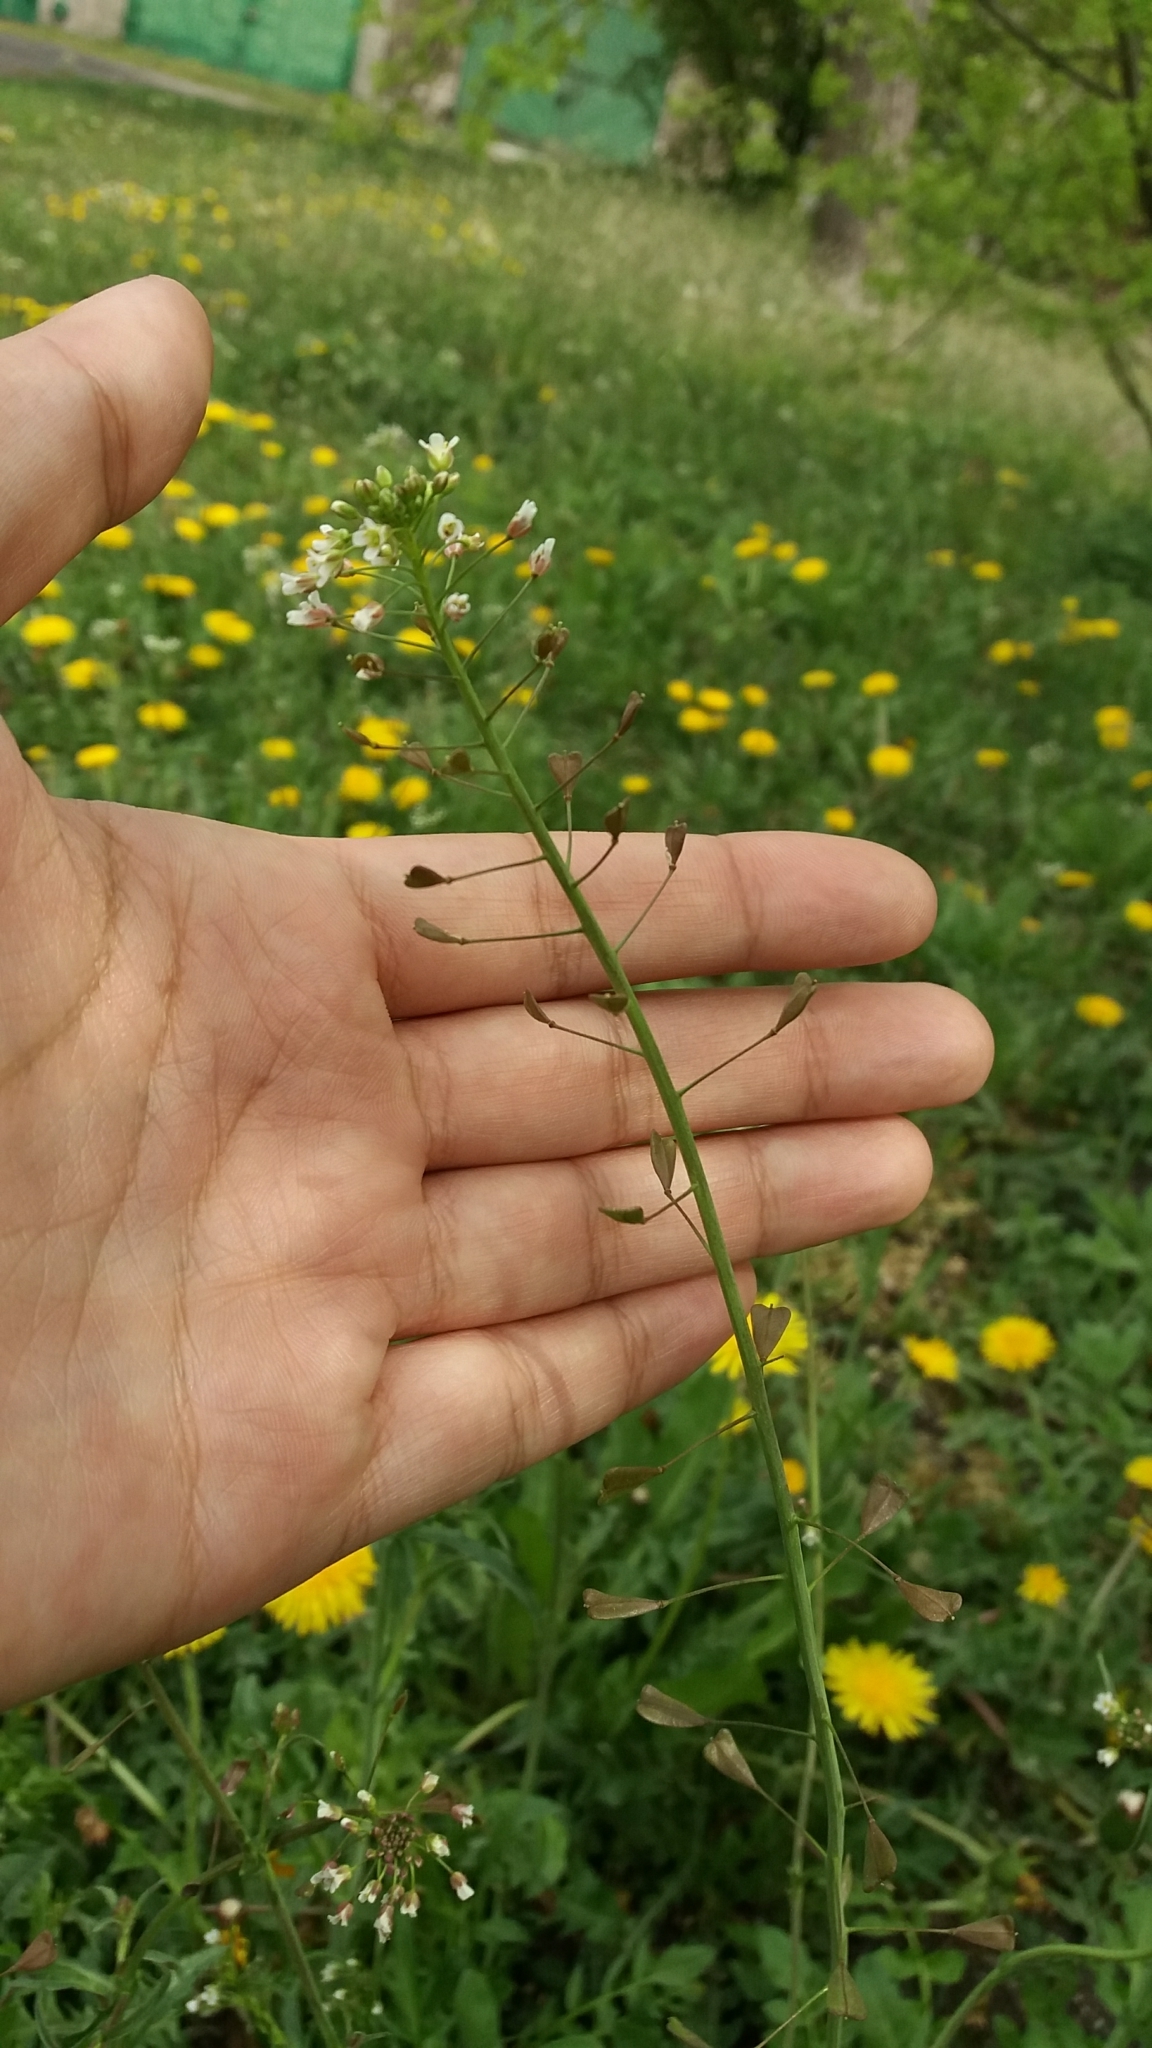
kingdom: Plantae
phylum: Tracheophyta
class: Magnoliopsida
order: Brassicales
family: Brassicaceae
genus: Capsella
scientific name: Capsella bursa-pastoris
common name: Shepherd's purse
